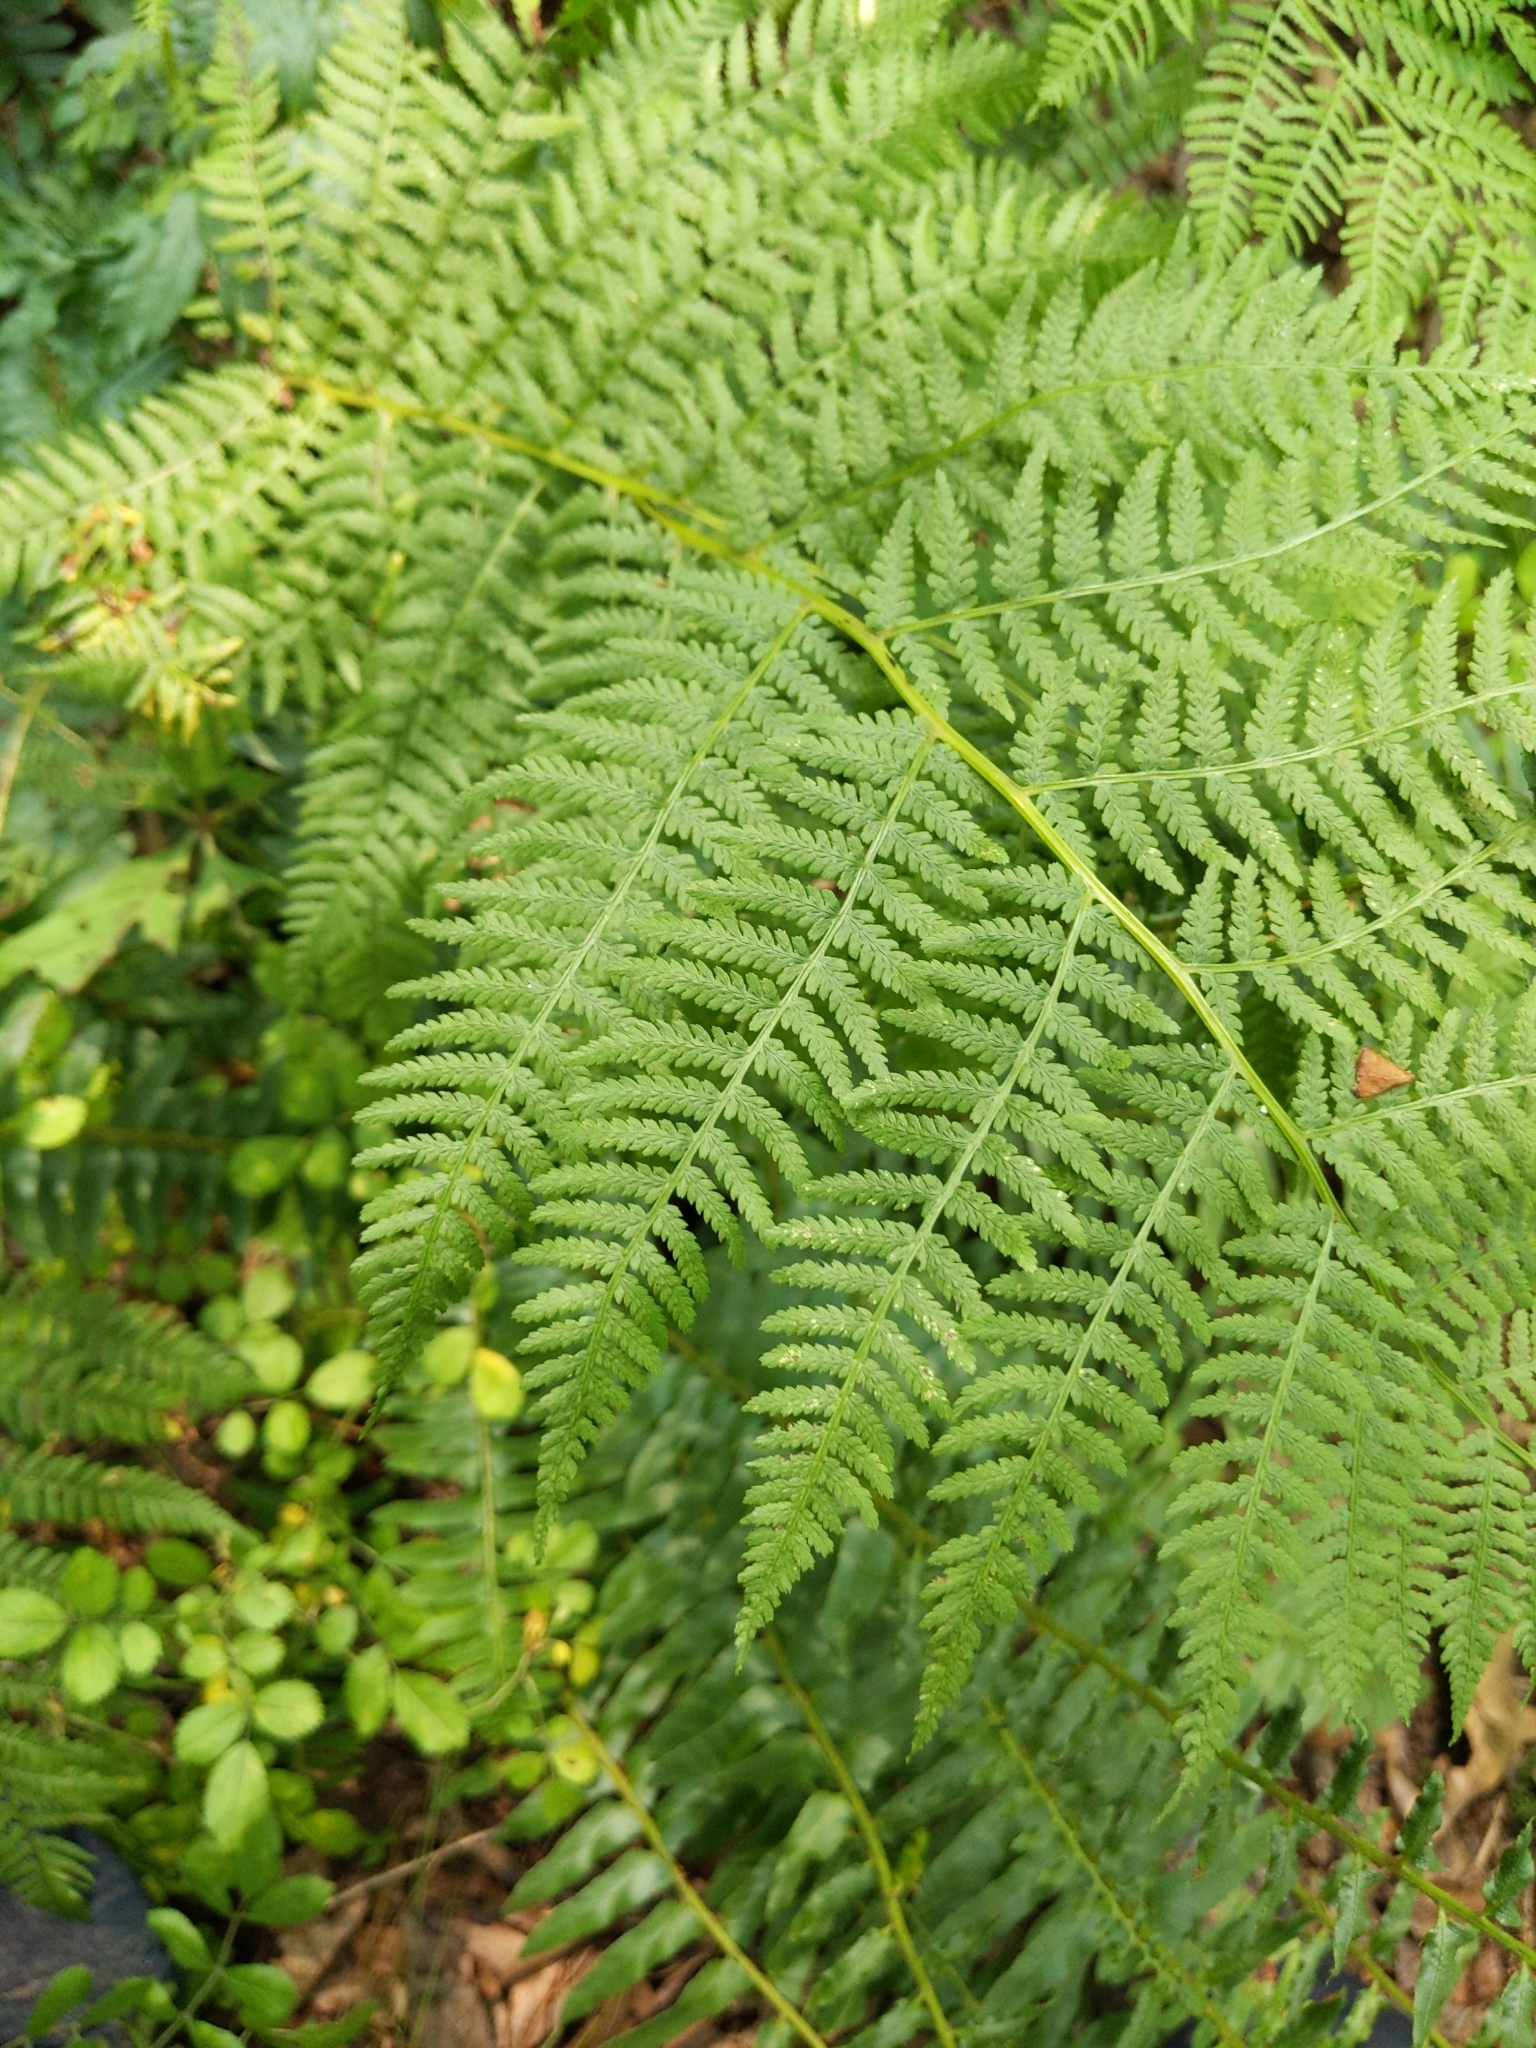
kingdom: Plantae
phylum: Tracheophyta
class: Polypodiopsida
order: Polypodiales
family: Athyriaceae
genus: Athyrium
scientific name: Athyrium angustum
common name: Northern lady fern
